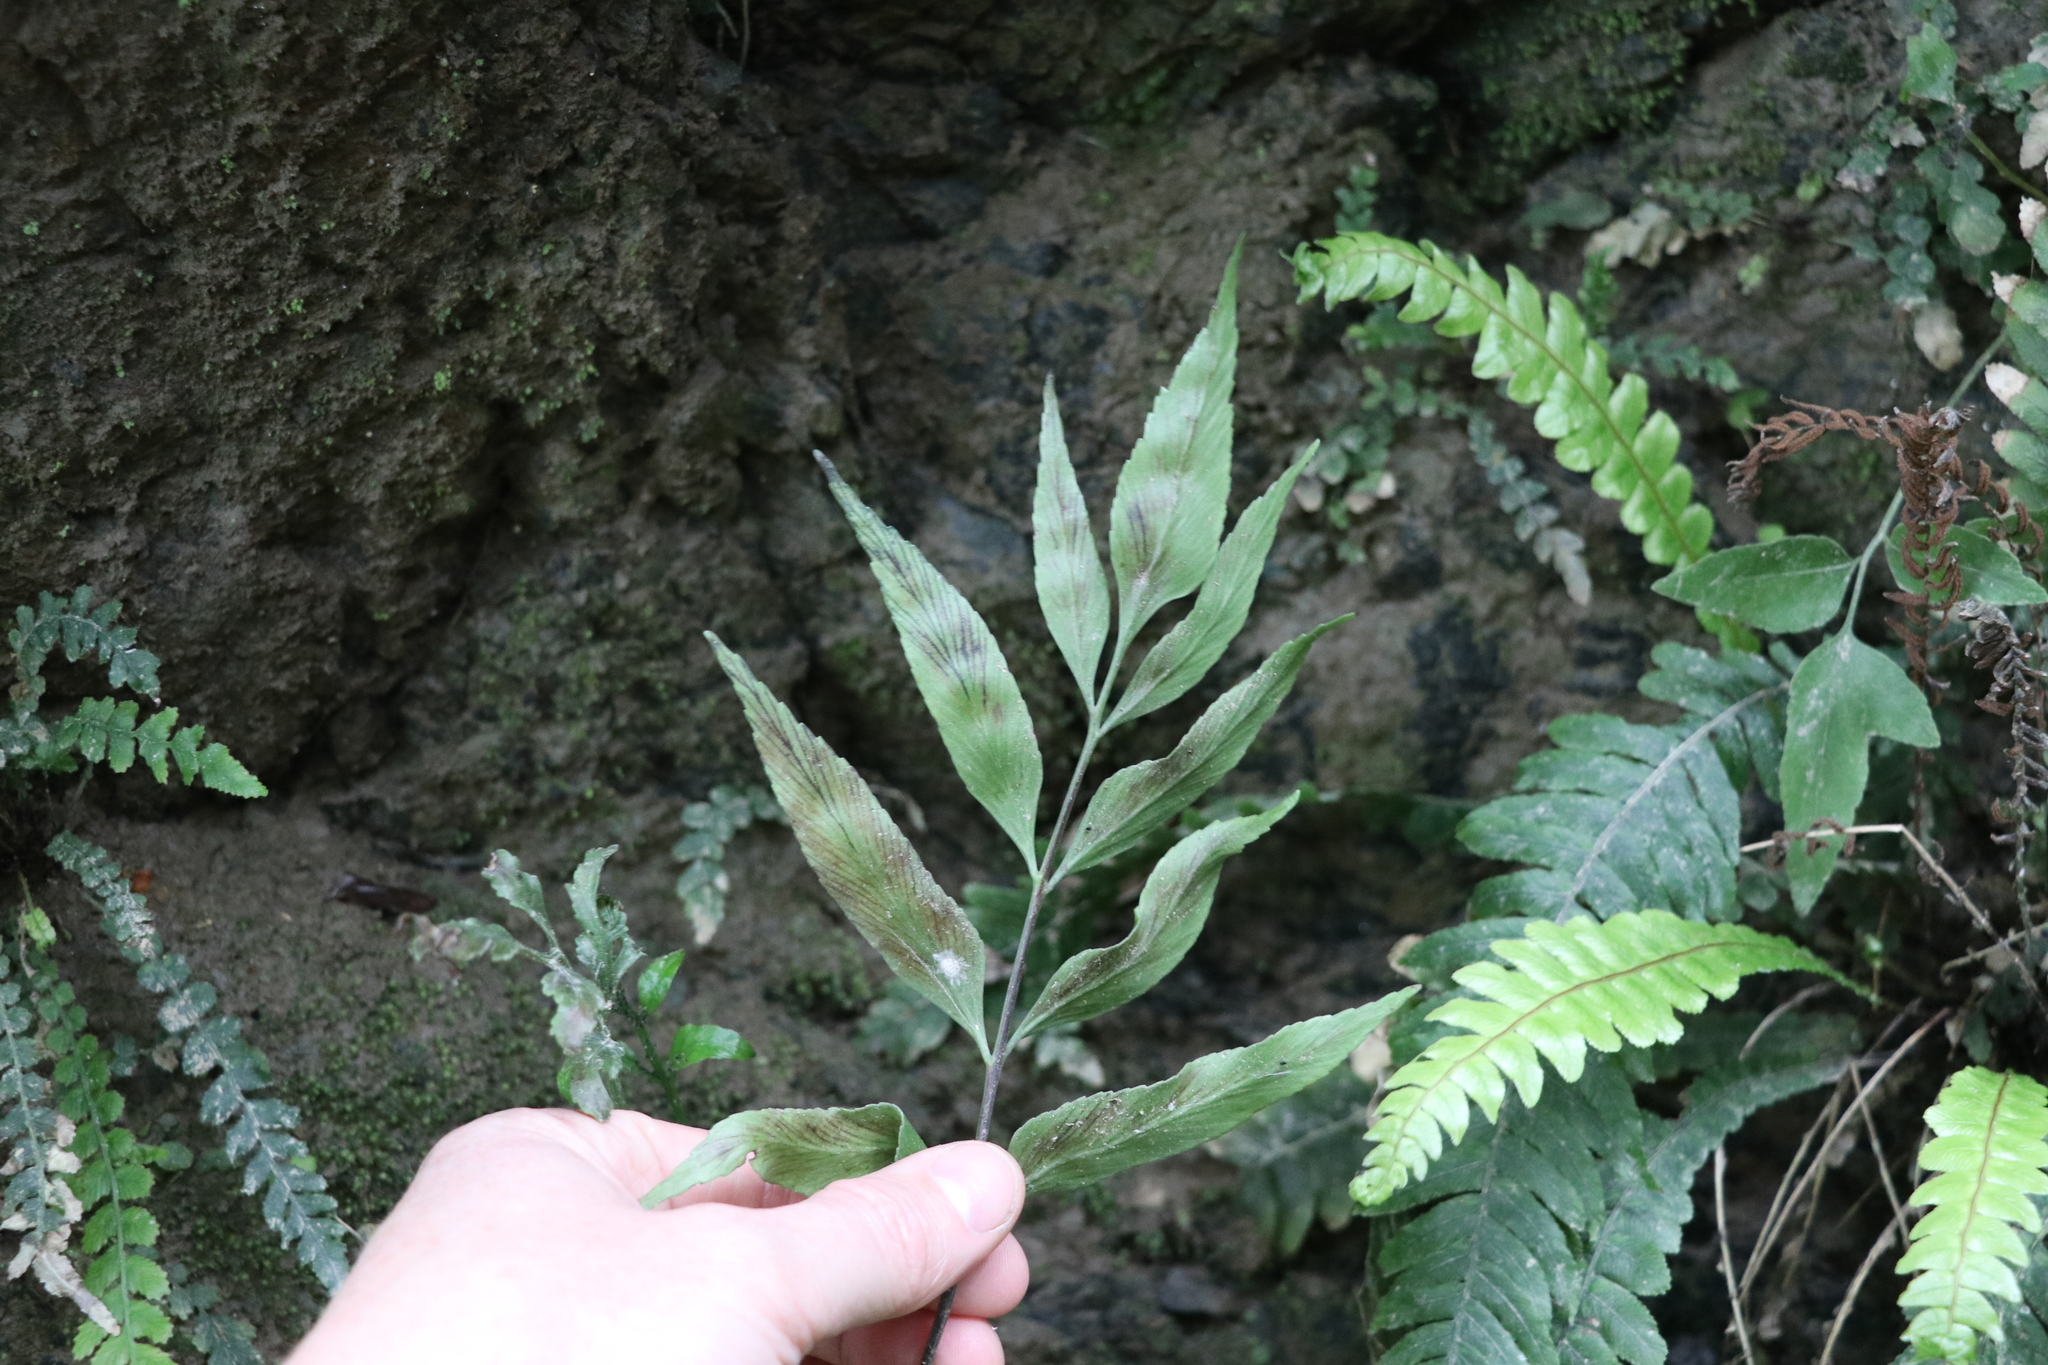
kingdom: Plantae
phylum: Tracheophyta
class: Polypodiopsida
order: Polypodiales
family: Aspleniaceae
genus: Asplenium
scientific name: Asplenium oblongifolium
